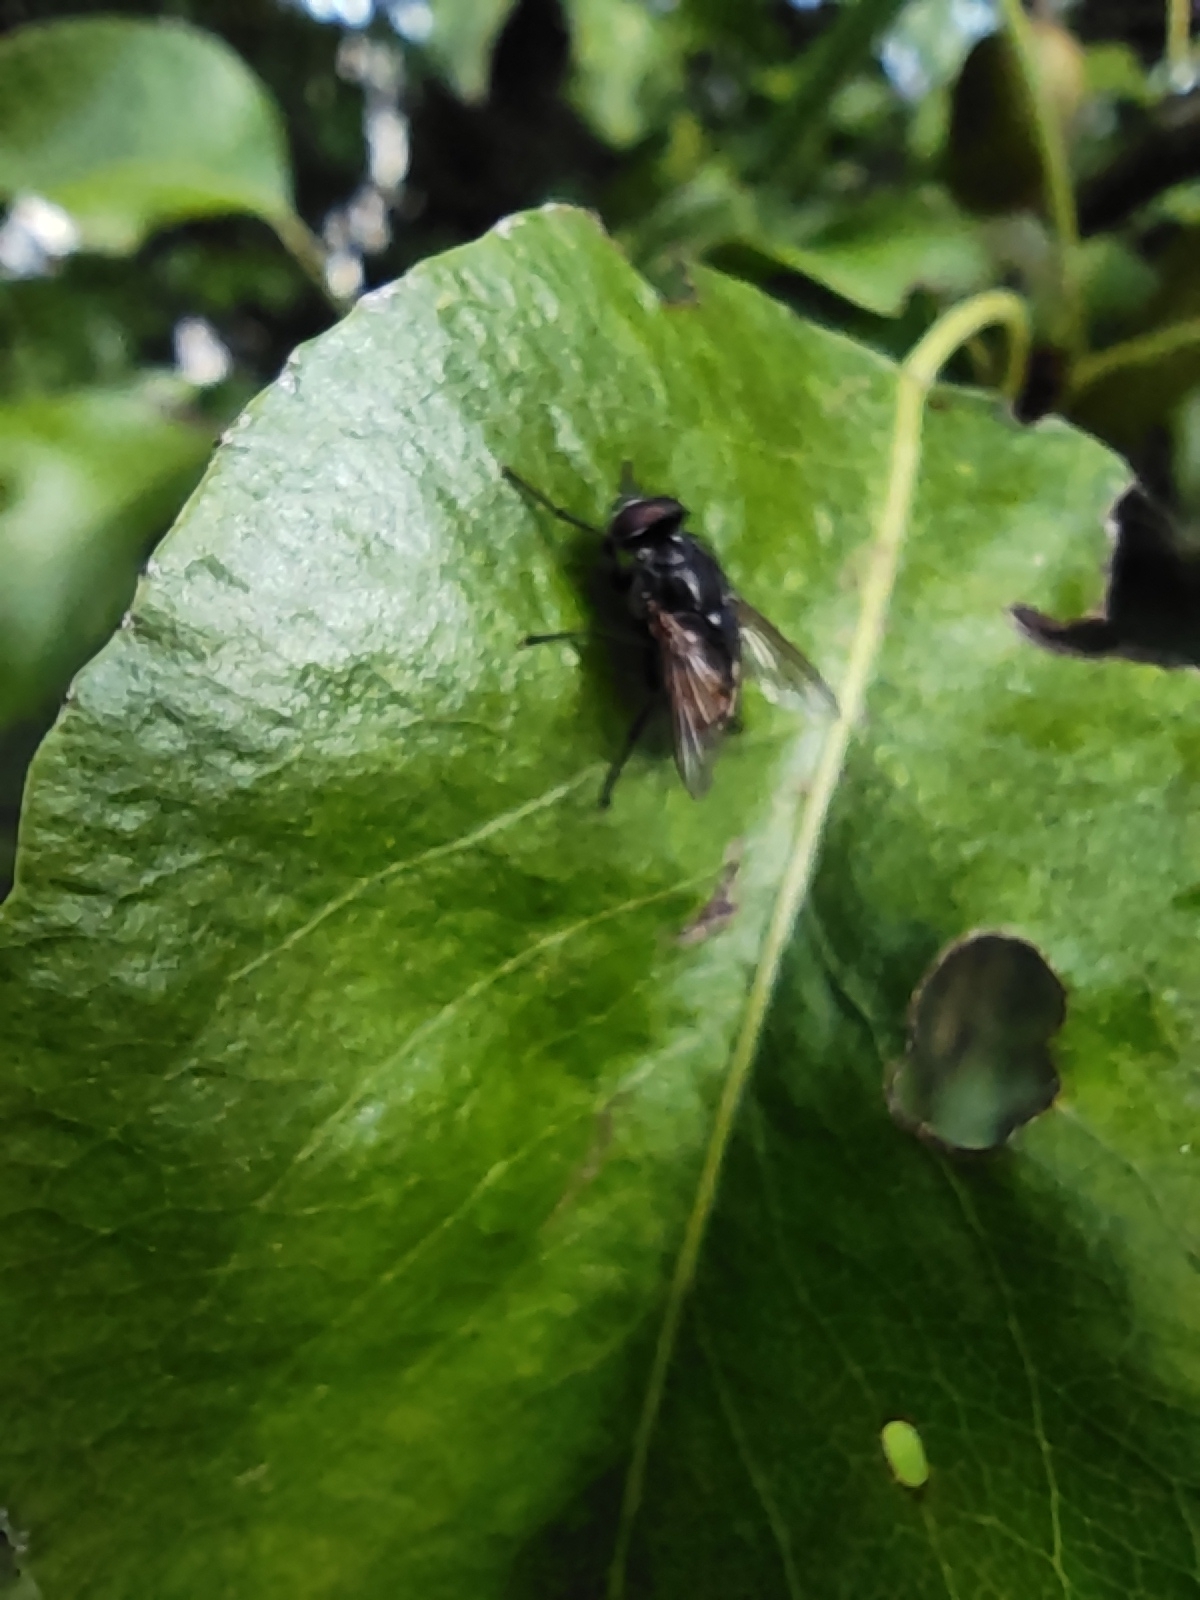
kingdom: Animalia
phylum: Arthropoda
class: Insecta
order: Diptera
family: Muscidae
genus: Musca
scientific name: Musca autumnalis
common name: Face fly
